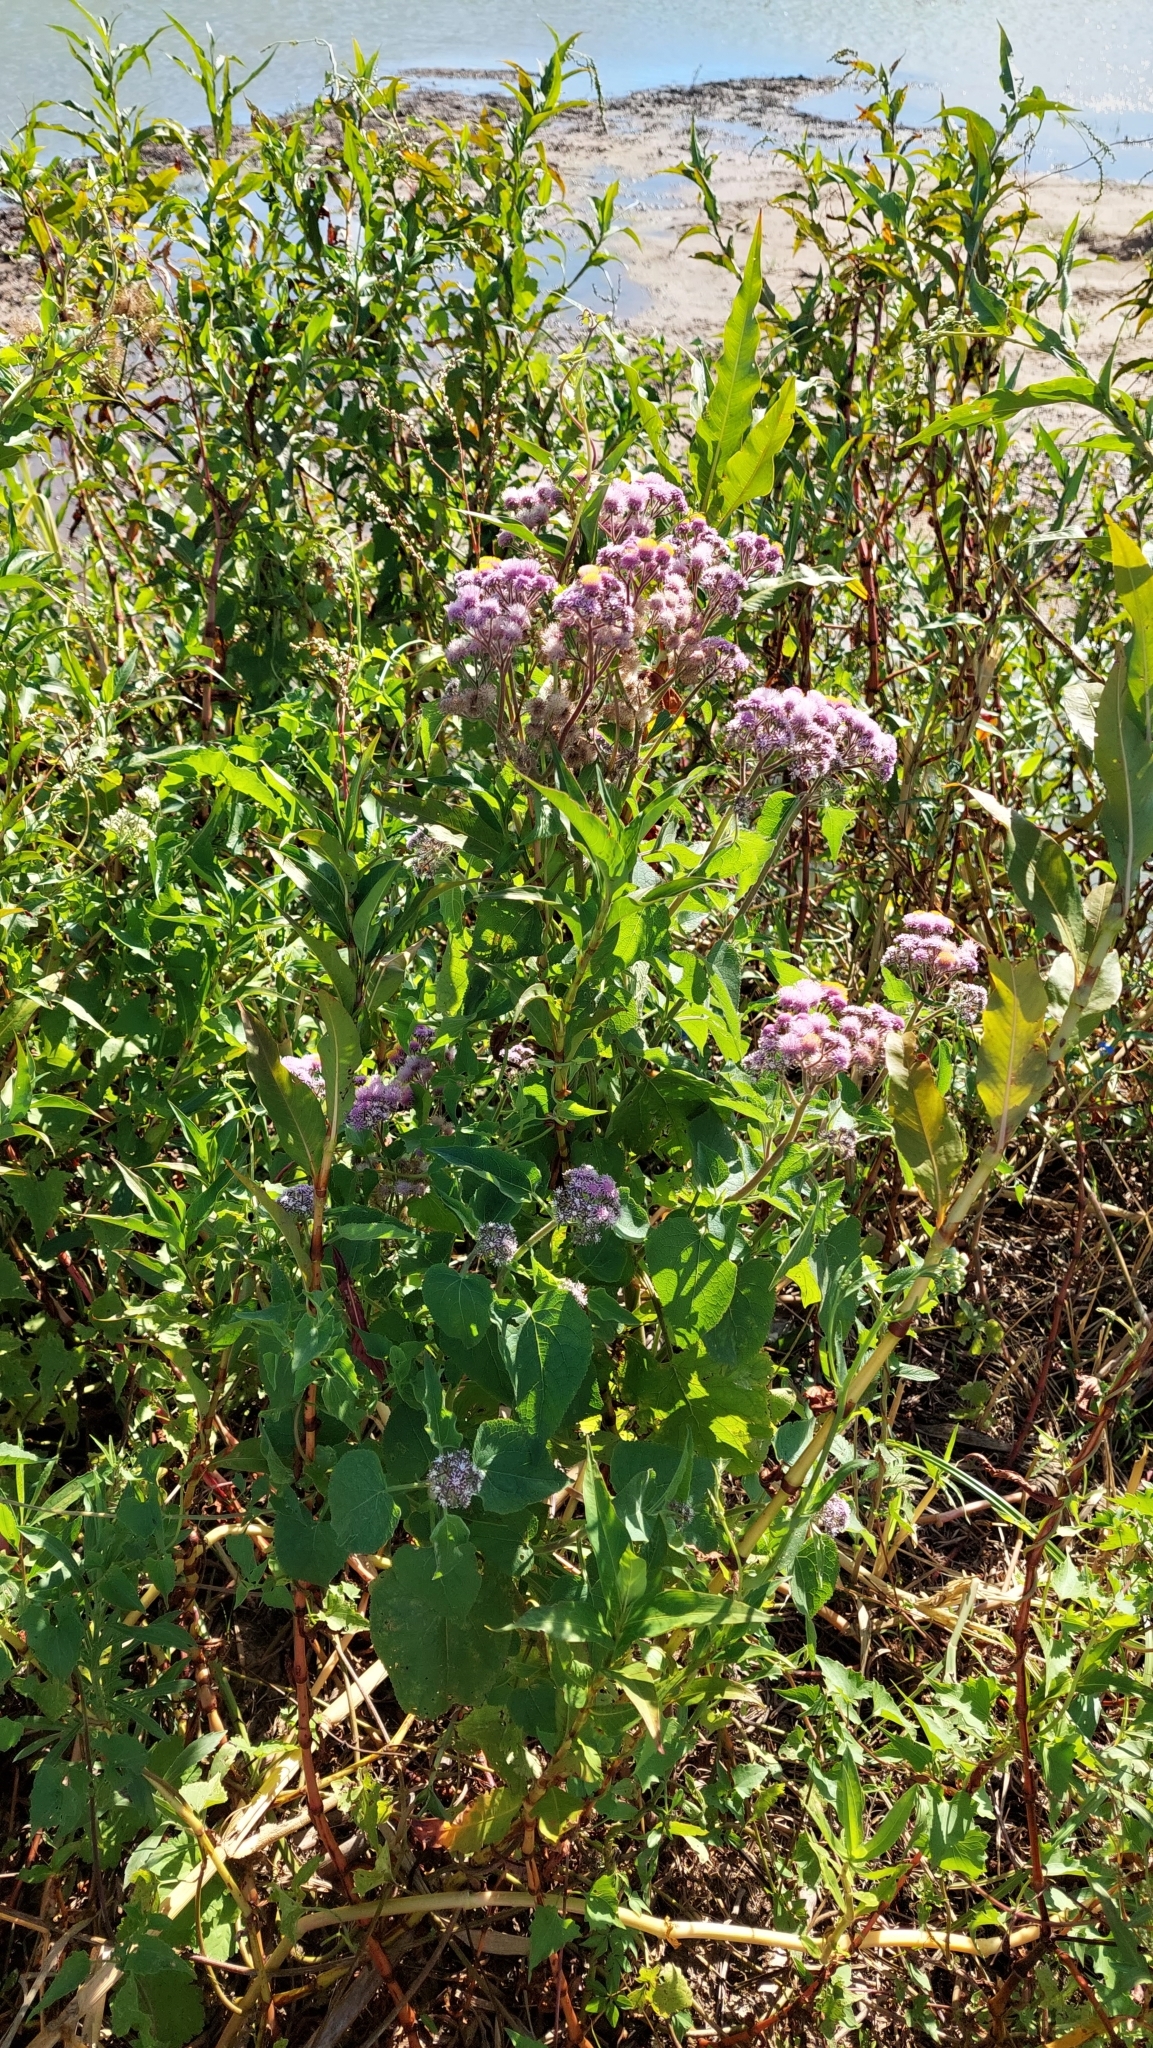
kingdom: Plantae
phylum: Tracheophyta
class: Magnoliopsida
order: Asterales
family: Asteraceae
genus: Urolepis
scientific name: Urolepis hecatantha
